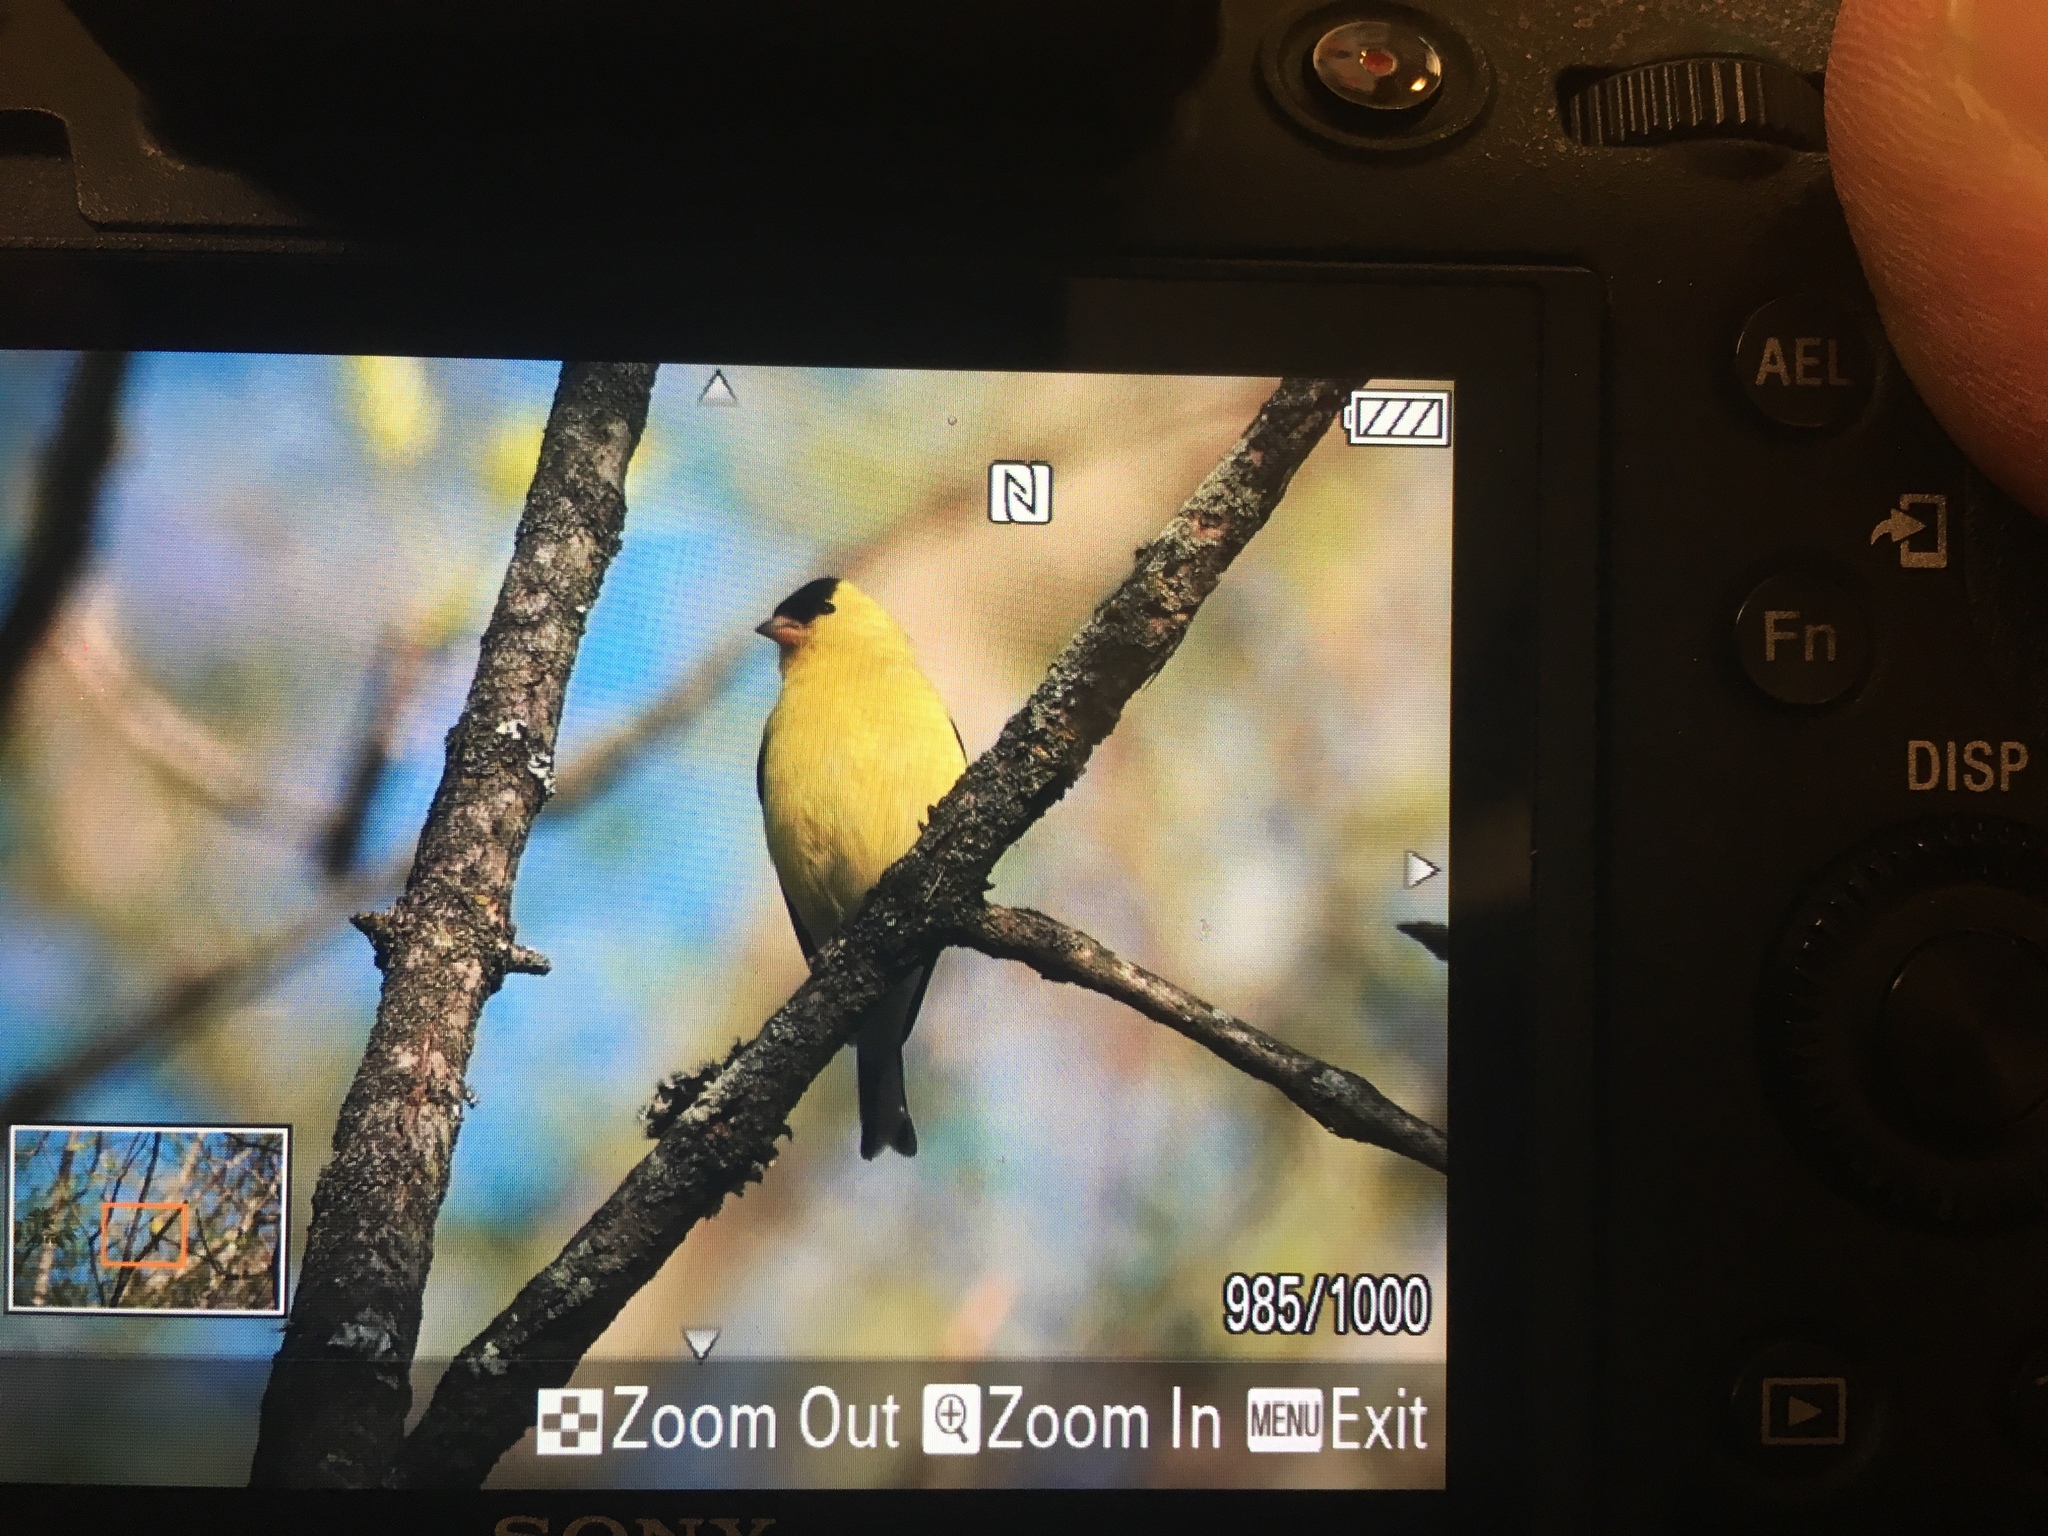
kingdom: Animalia
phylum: Chordata
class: Aves
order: Passeriformes
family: Fringillidae
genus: Spinus
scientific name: Spinus tristis
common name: American goldfinch
